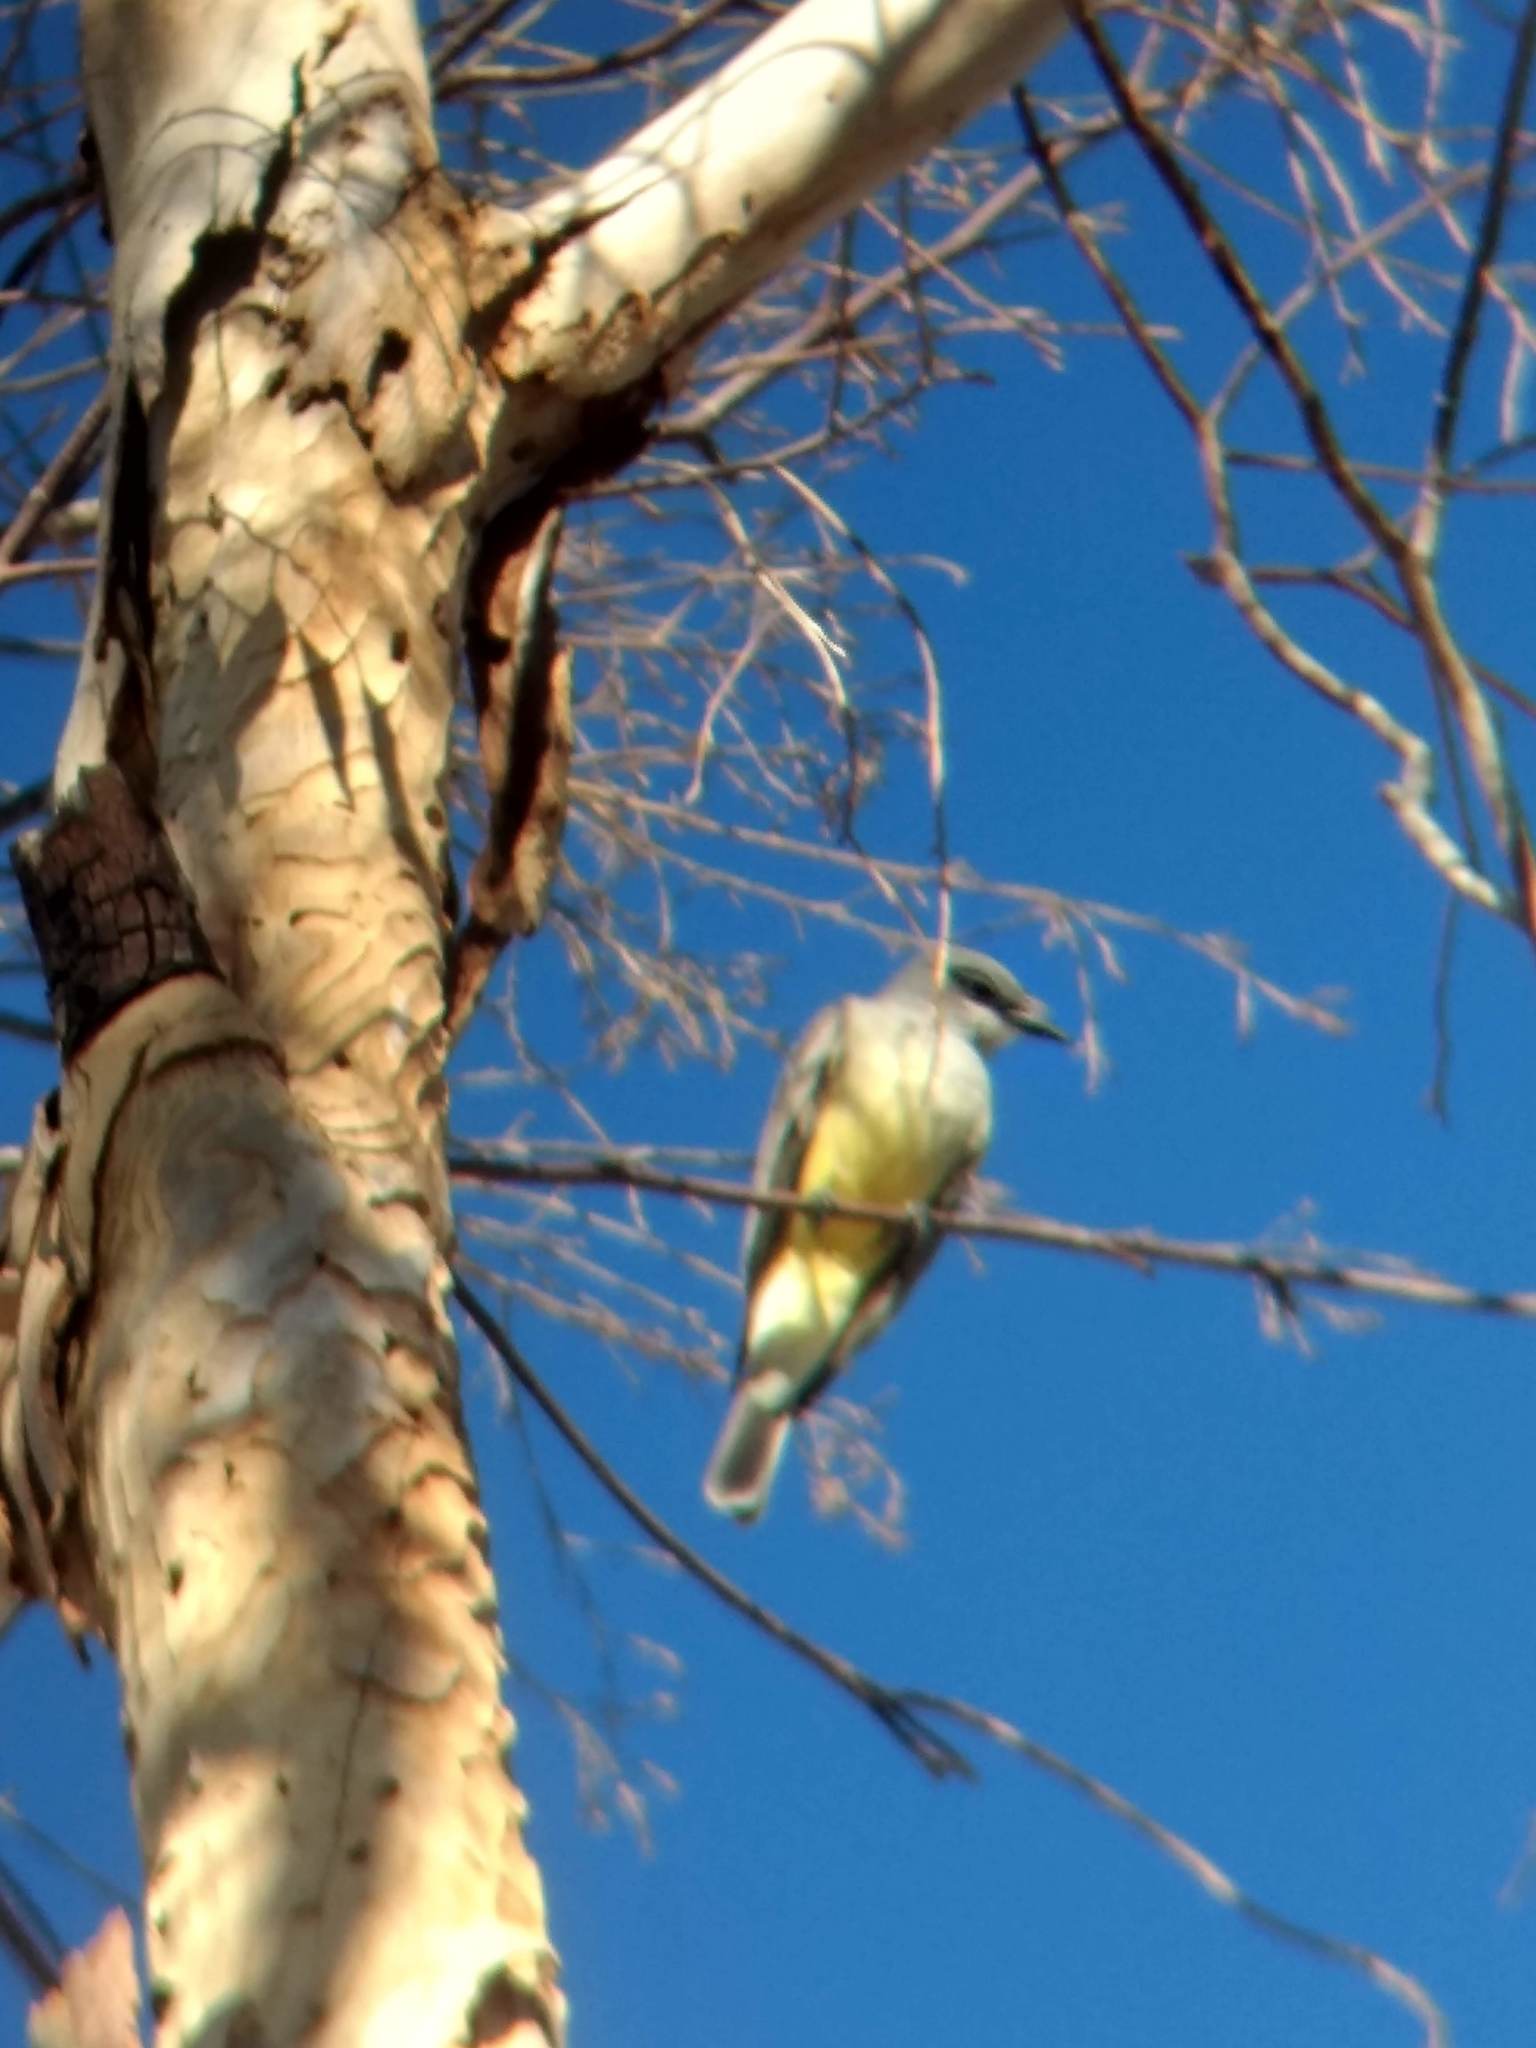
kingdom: Animalia
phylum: Chordata
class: Aves
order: Passeriformes
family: Tyrannidae
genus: Tyrannus
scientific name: Tyrannus vociferans
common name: Cassin's kingbird
